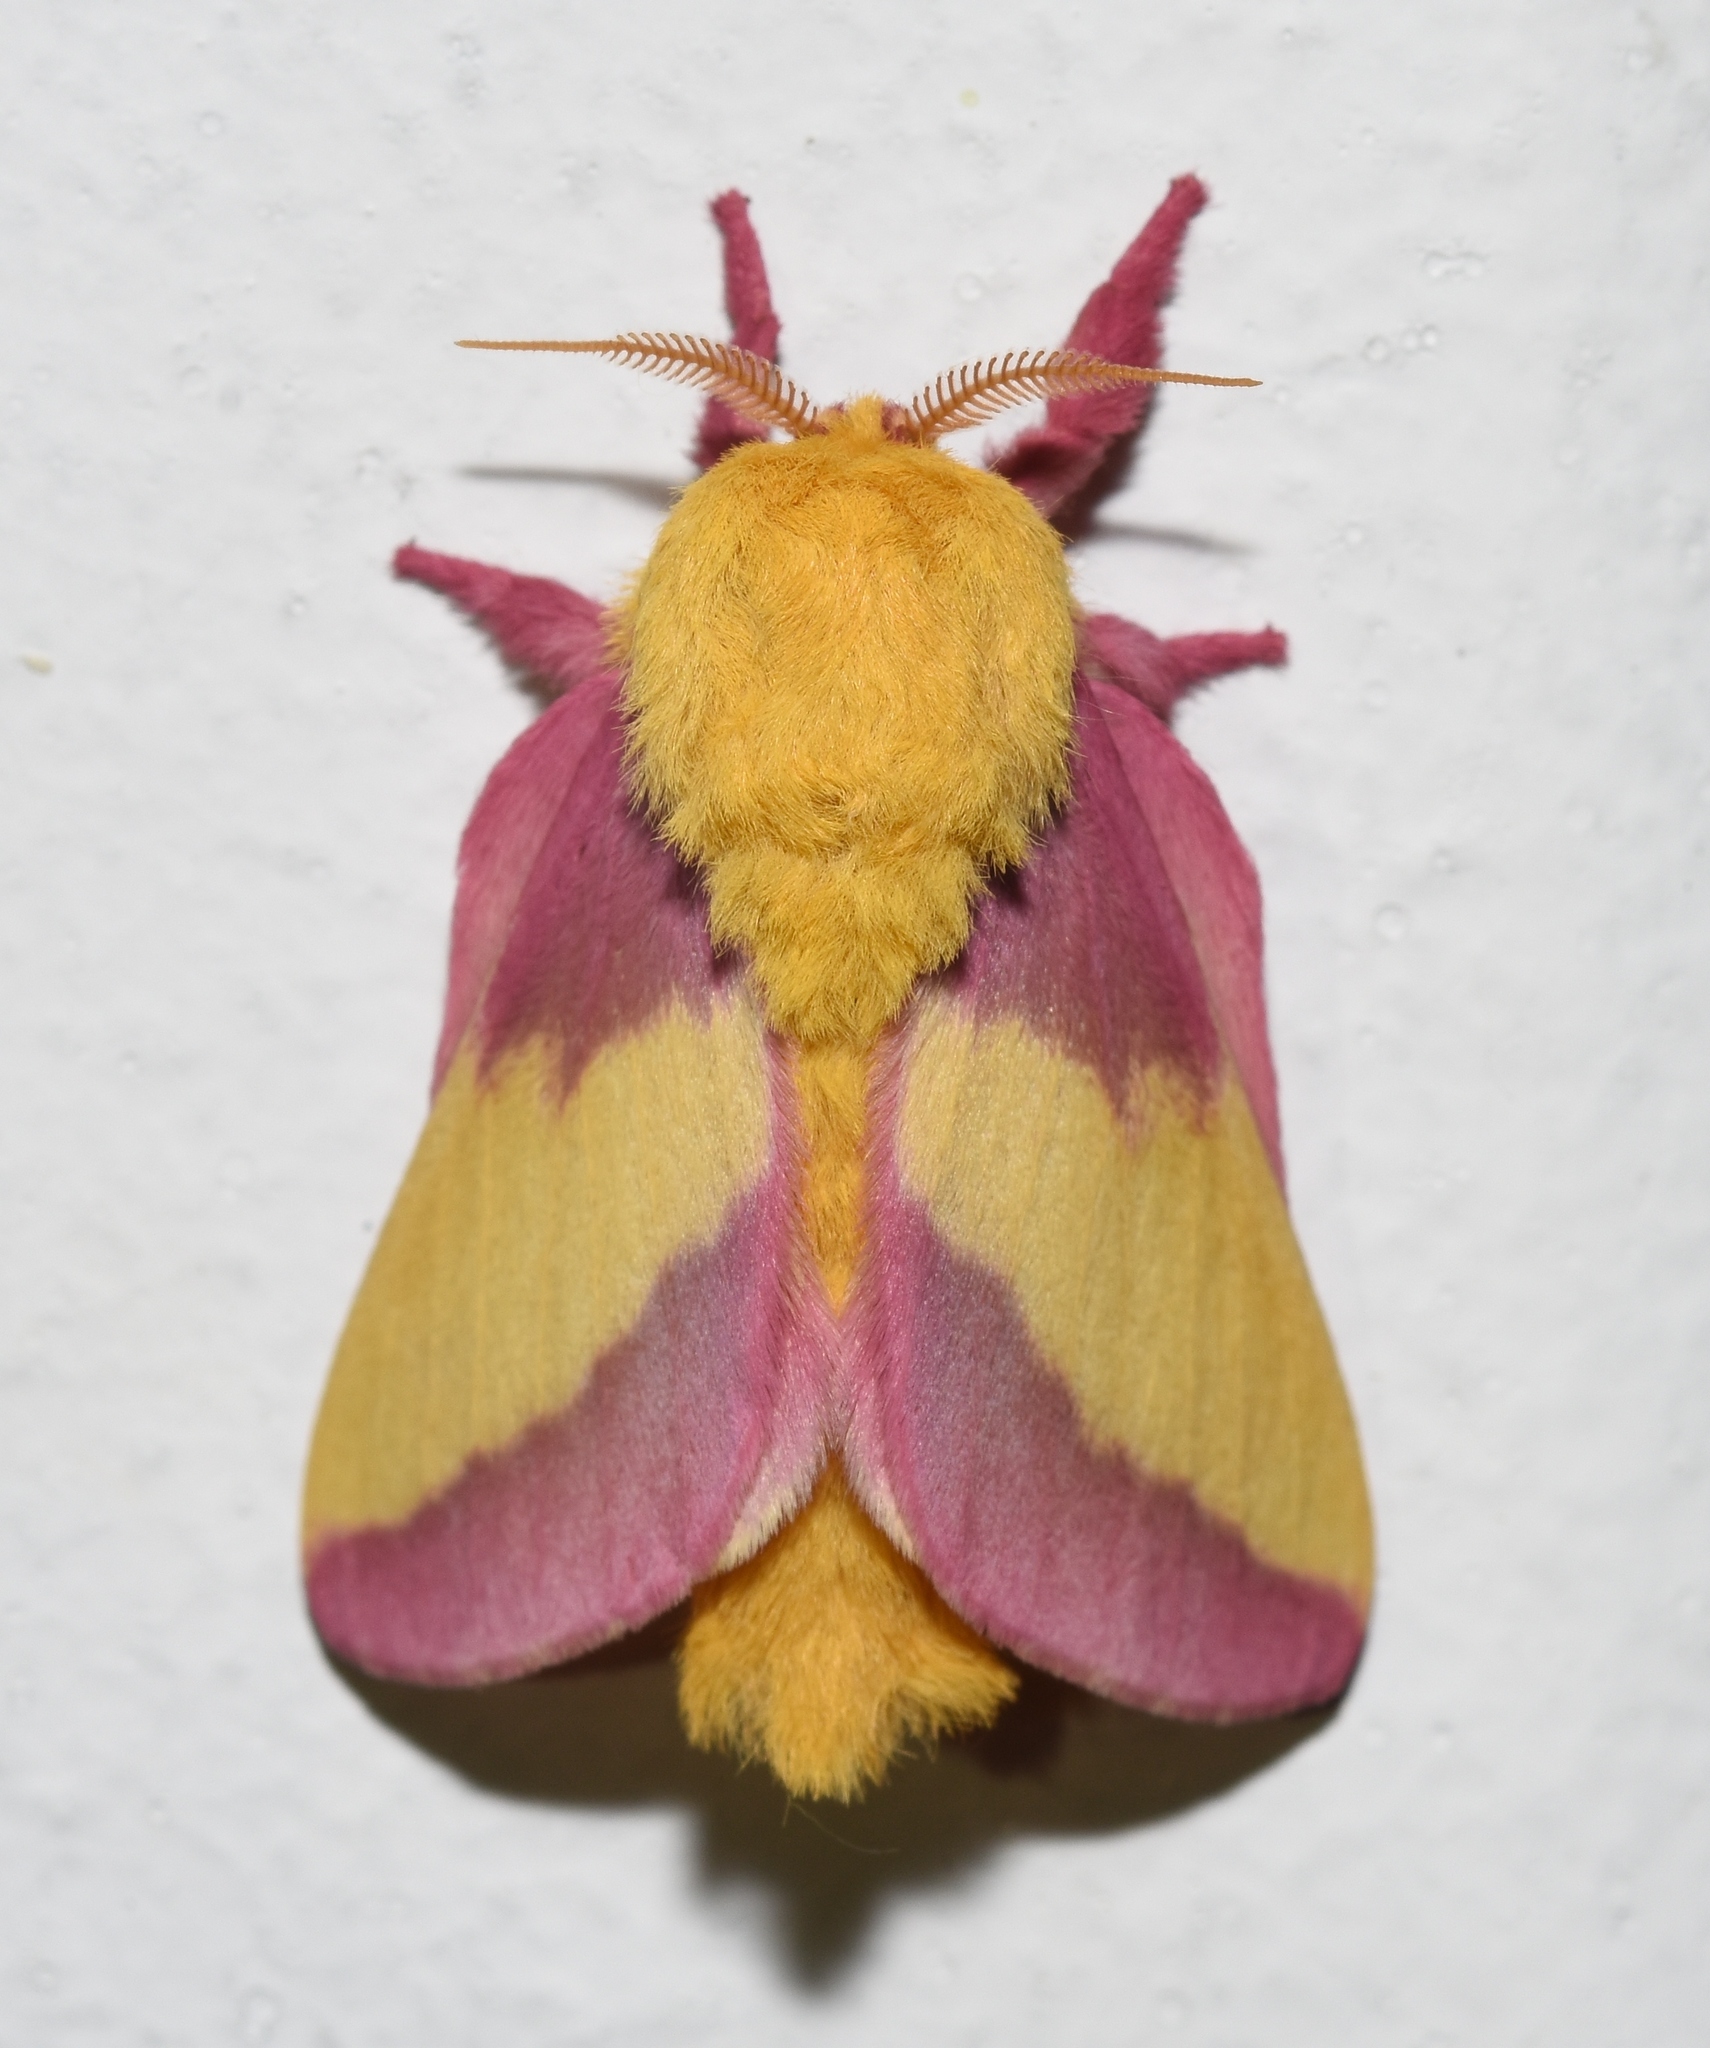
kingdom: Animalia
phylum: Arthropoda
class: Insecta
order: Lepidoptera
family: Saturniidae
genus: Dryocampa
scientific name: Dryocampa rubicunda
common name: Rosy maple moth
